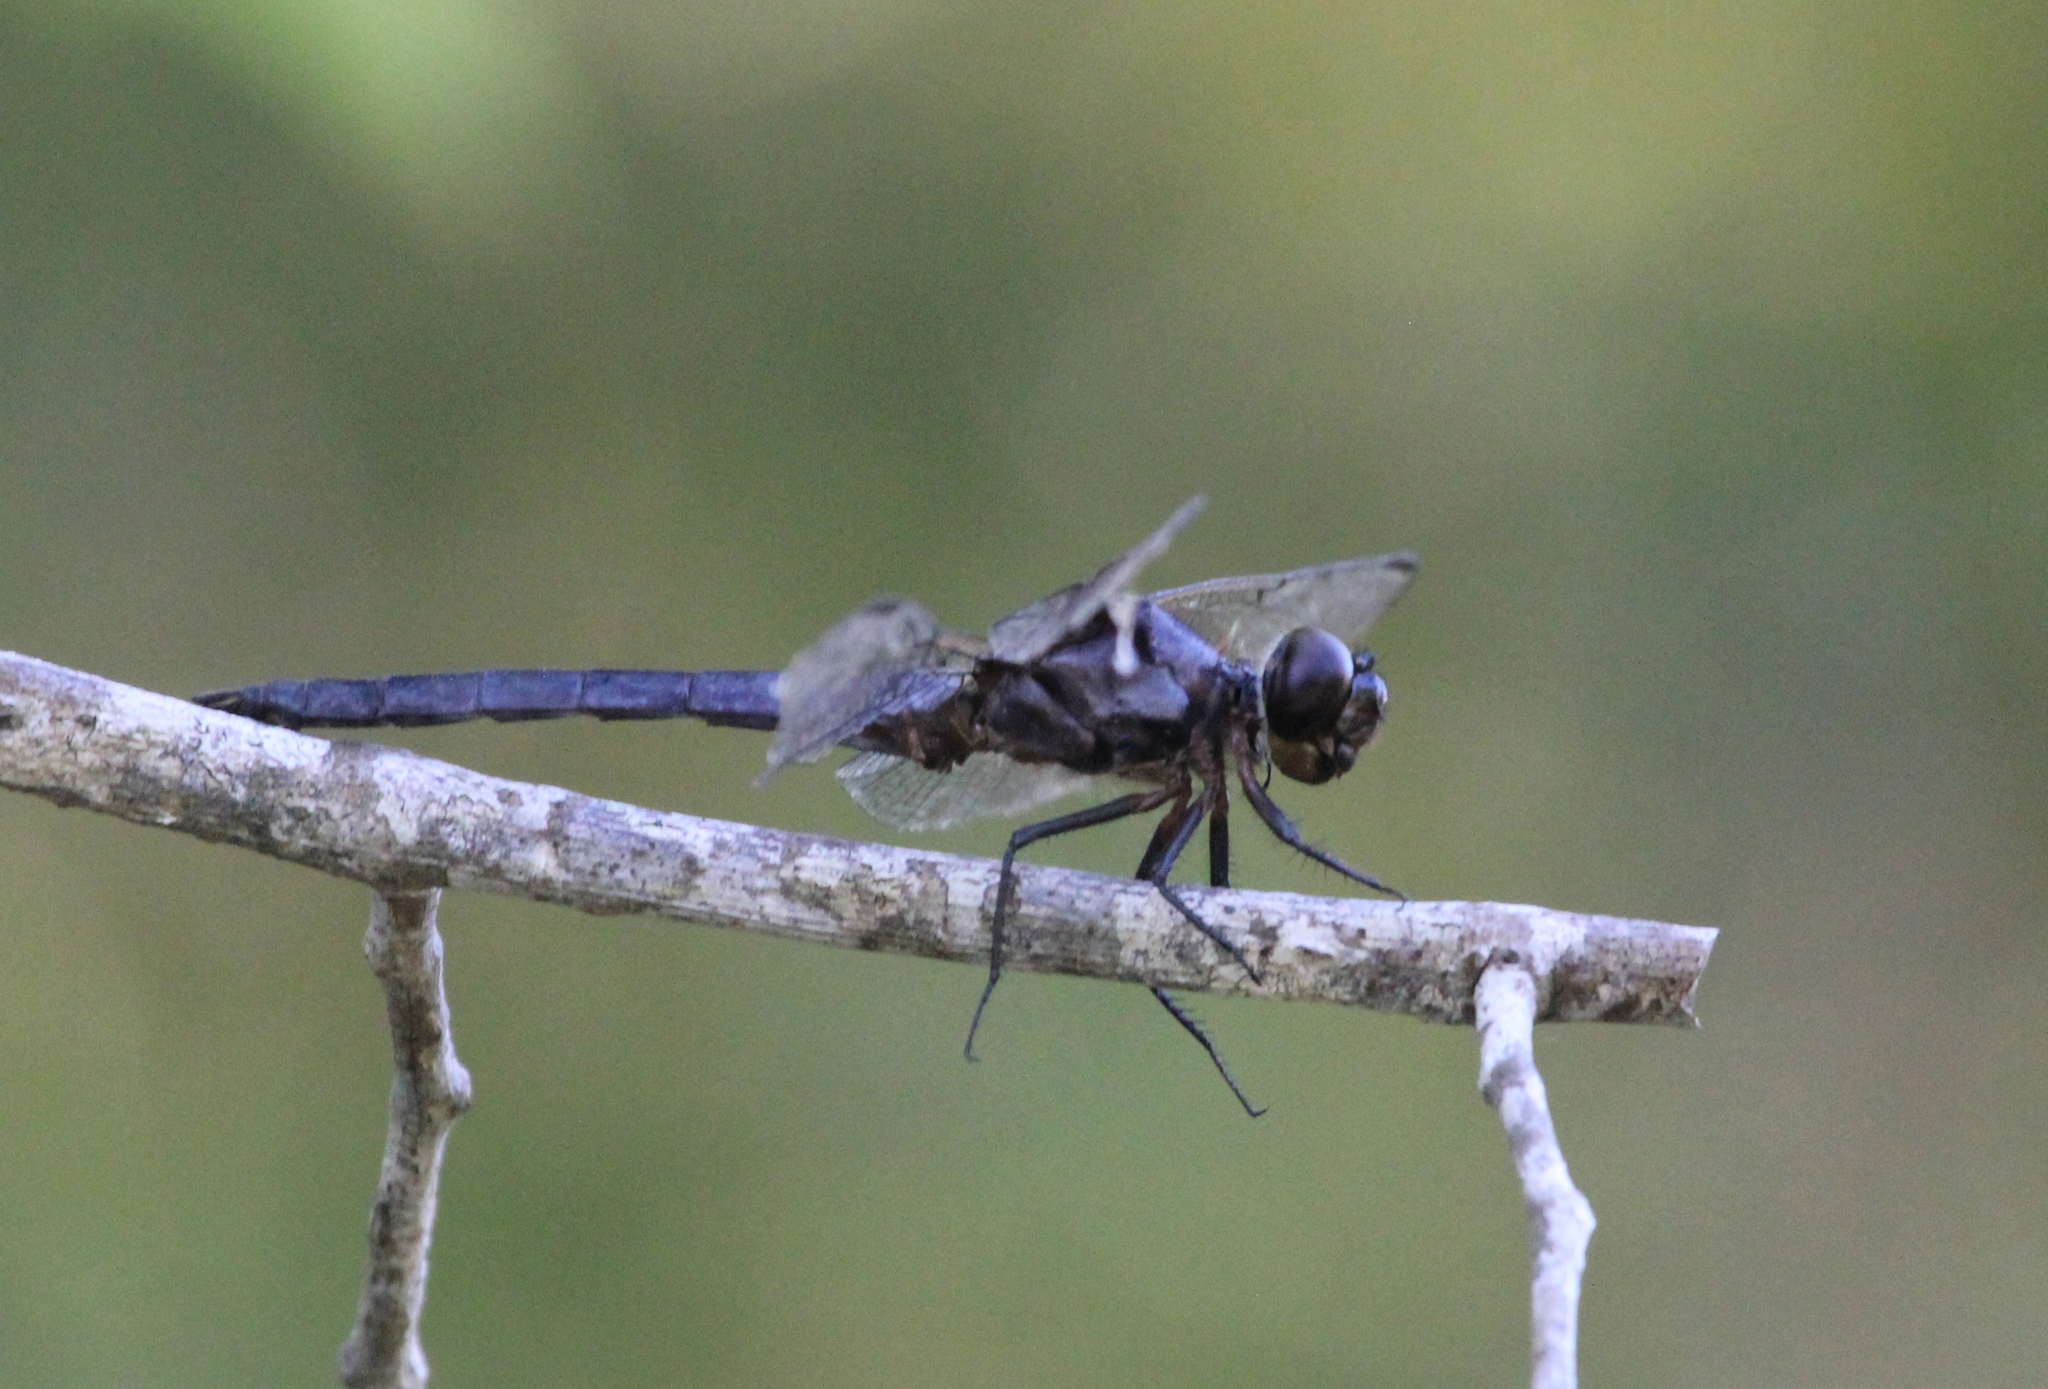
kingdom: Animalia
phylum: Arthropoda
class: Insecta
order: Odonata
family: Libellulidae
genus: Libellula
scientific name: Libellula incesta
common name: Slaty skimmer
